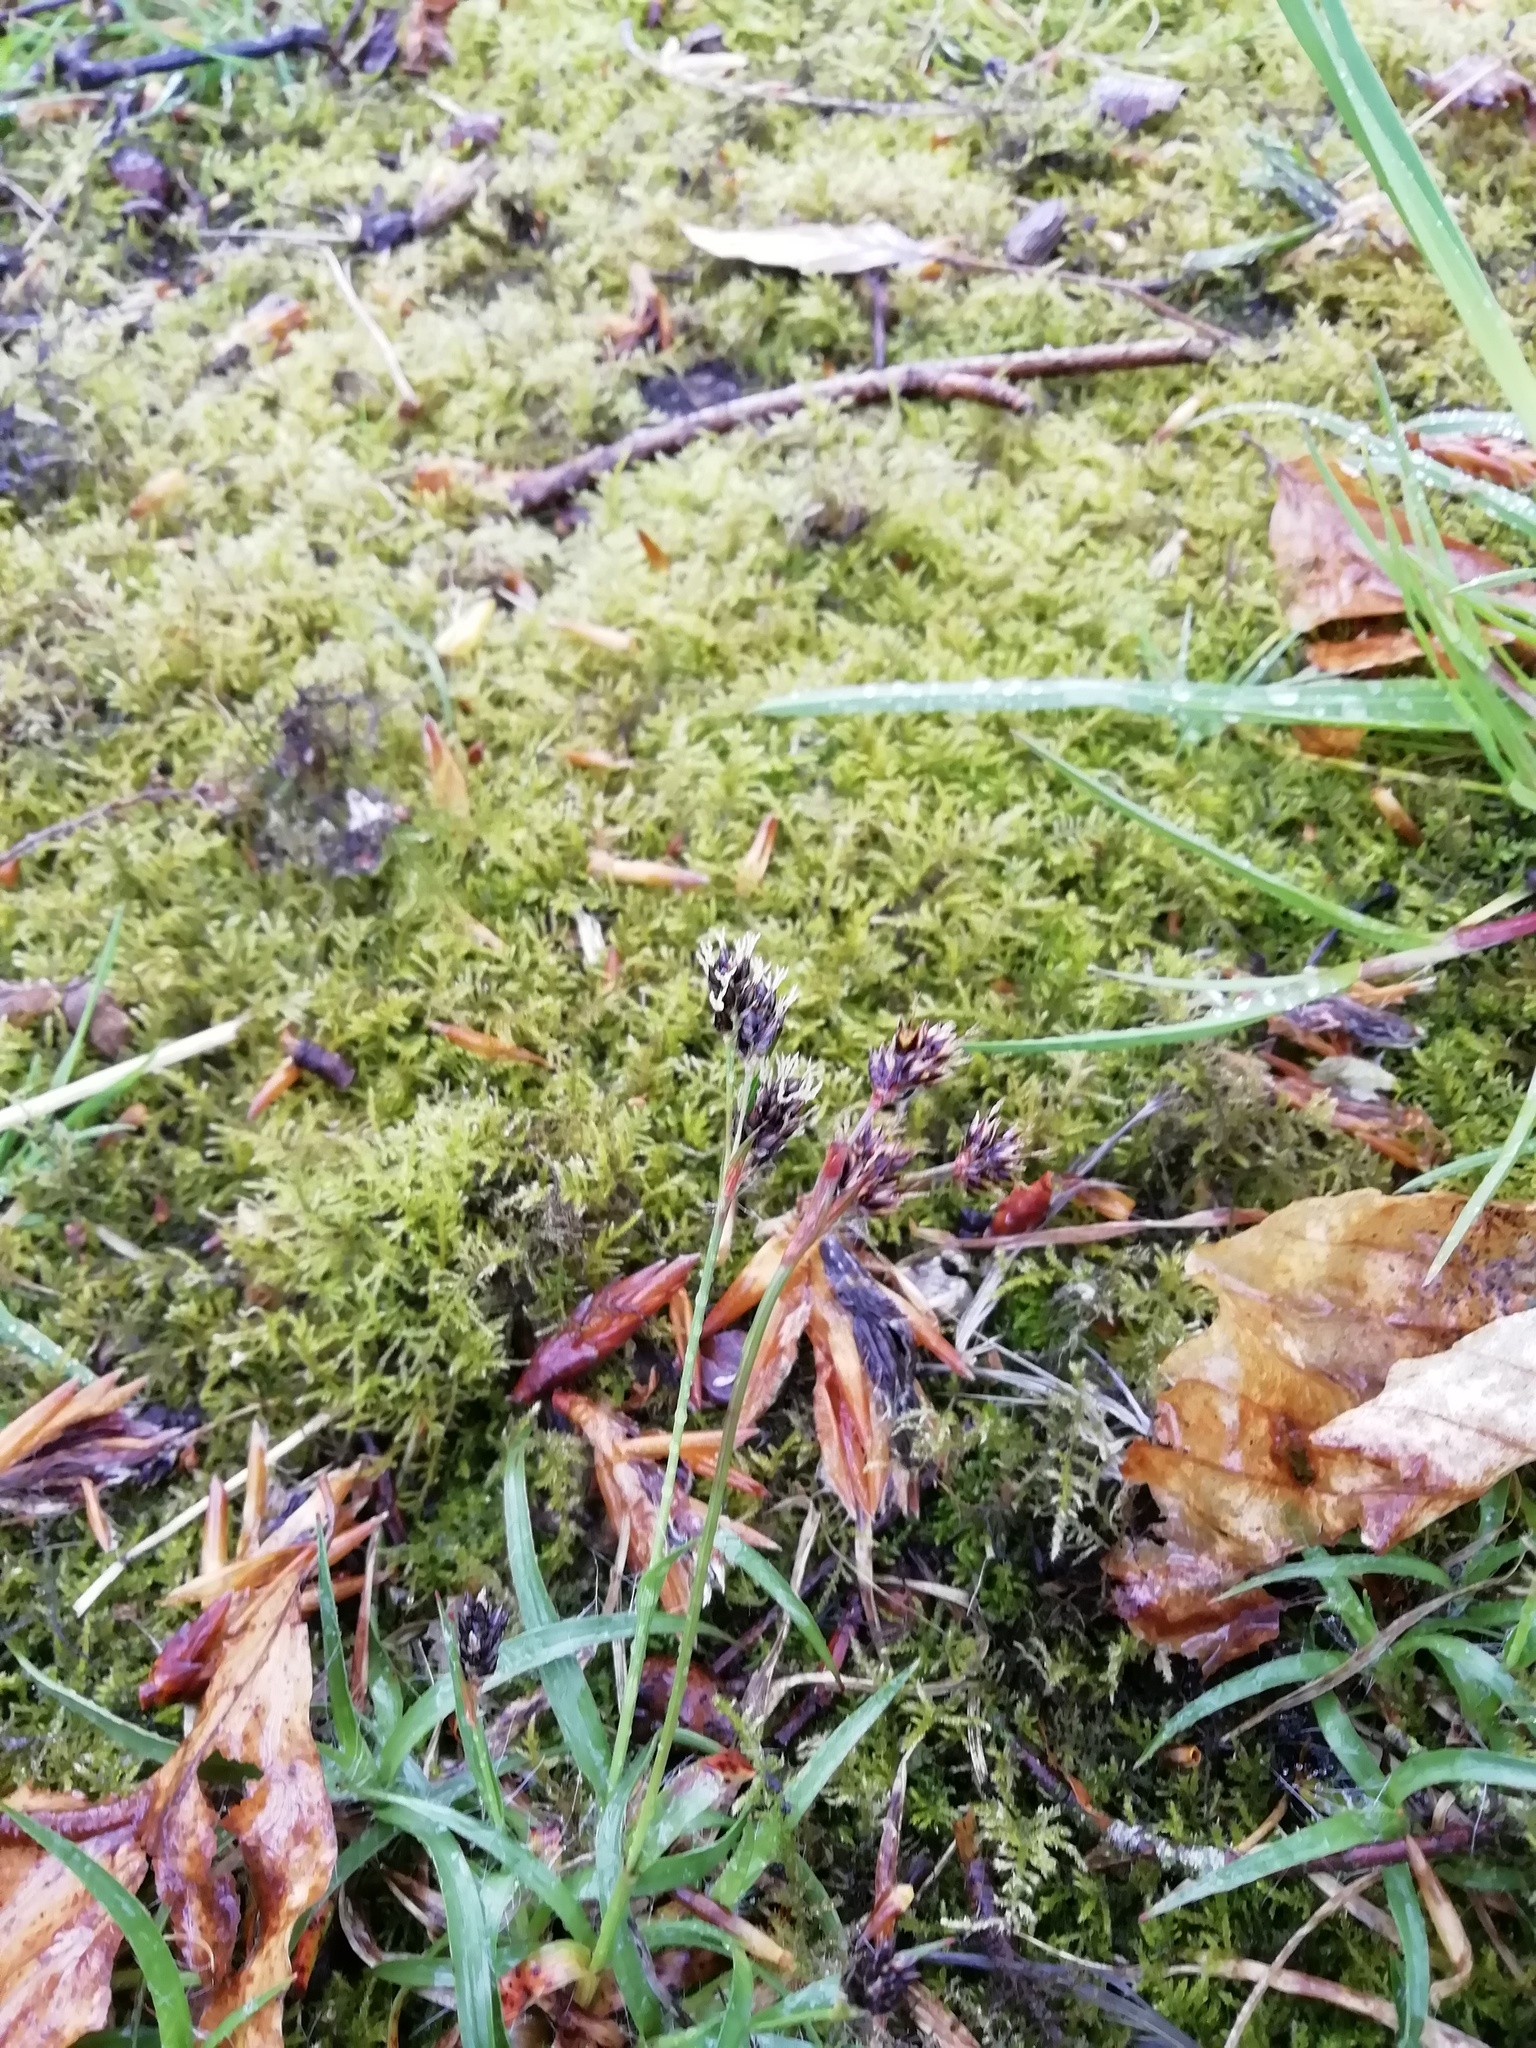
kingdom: Plantae
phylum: Tracheophyta
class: Liliopsida
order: Poales
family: Juncaceae
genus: Luzula
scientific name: Luzula campestris
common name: Field wood-rush
